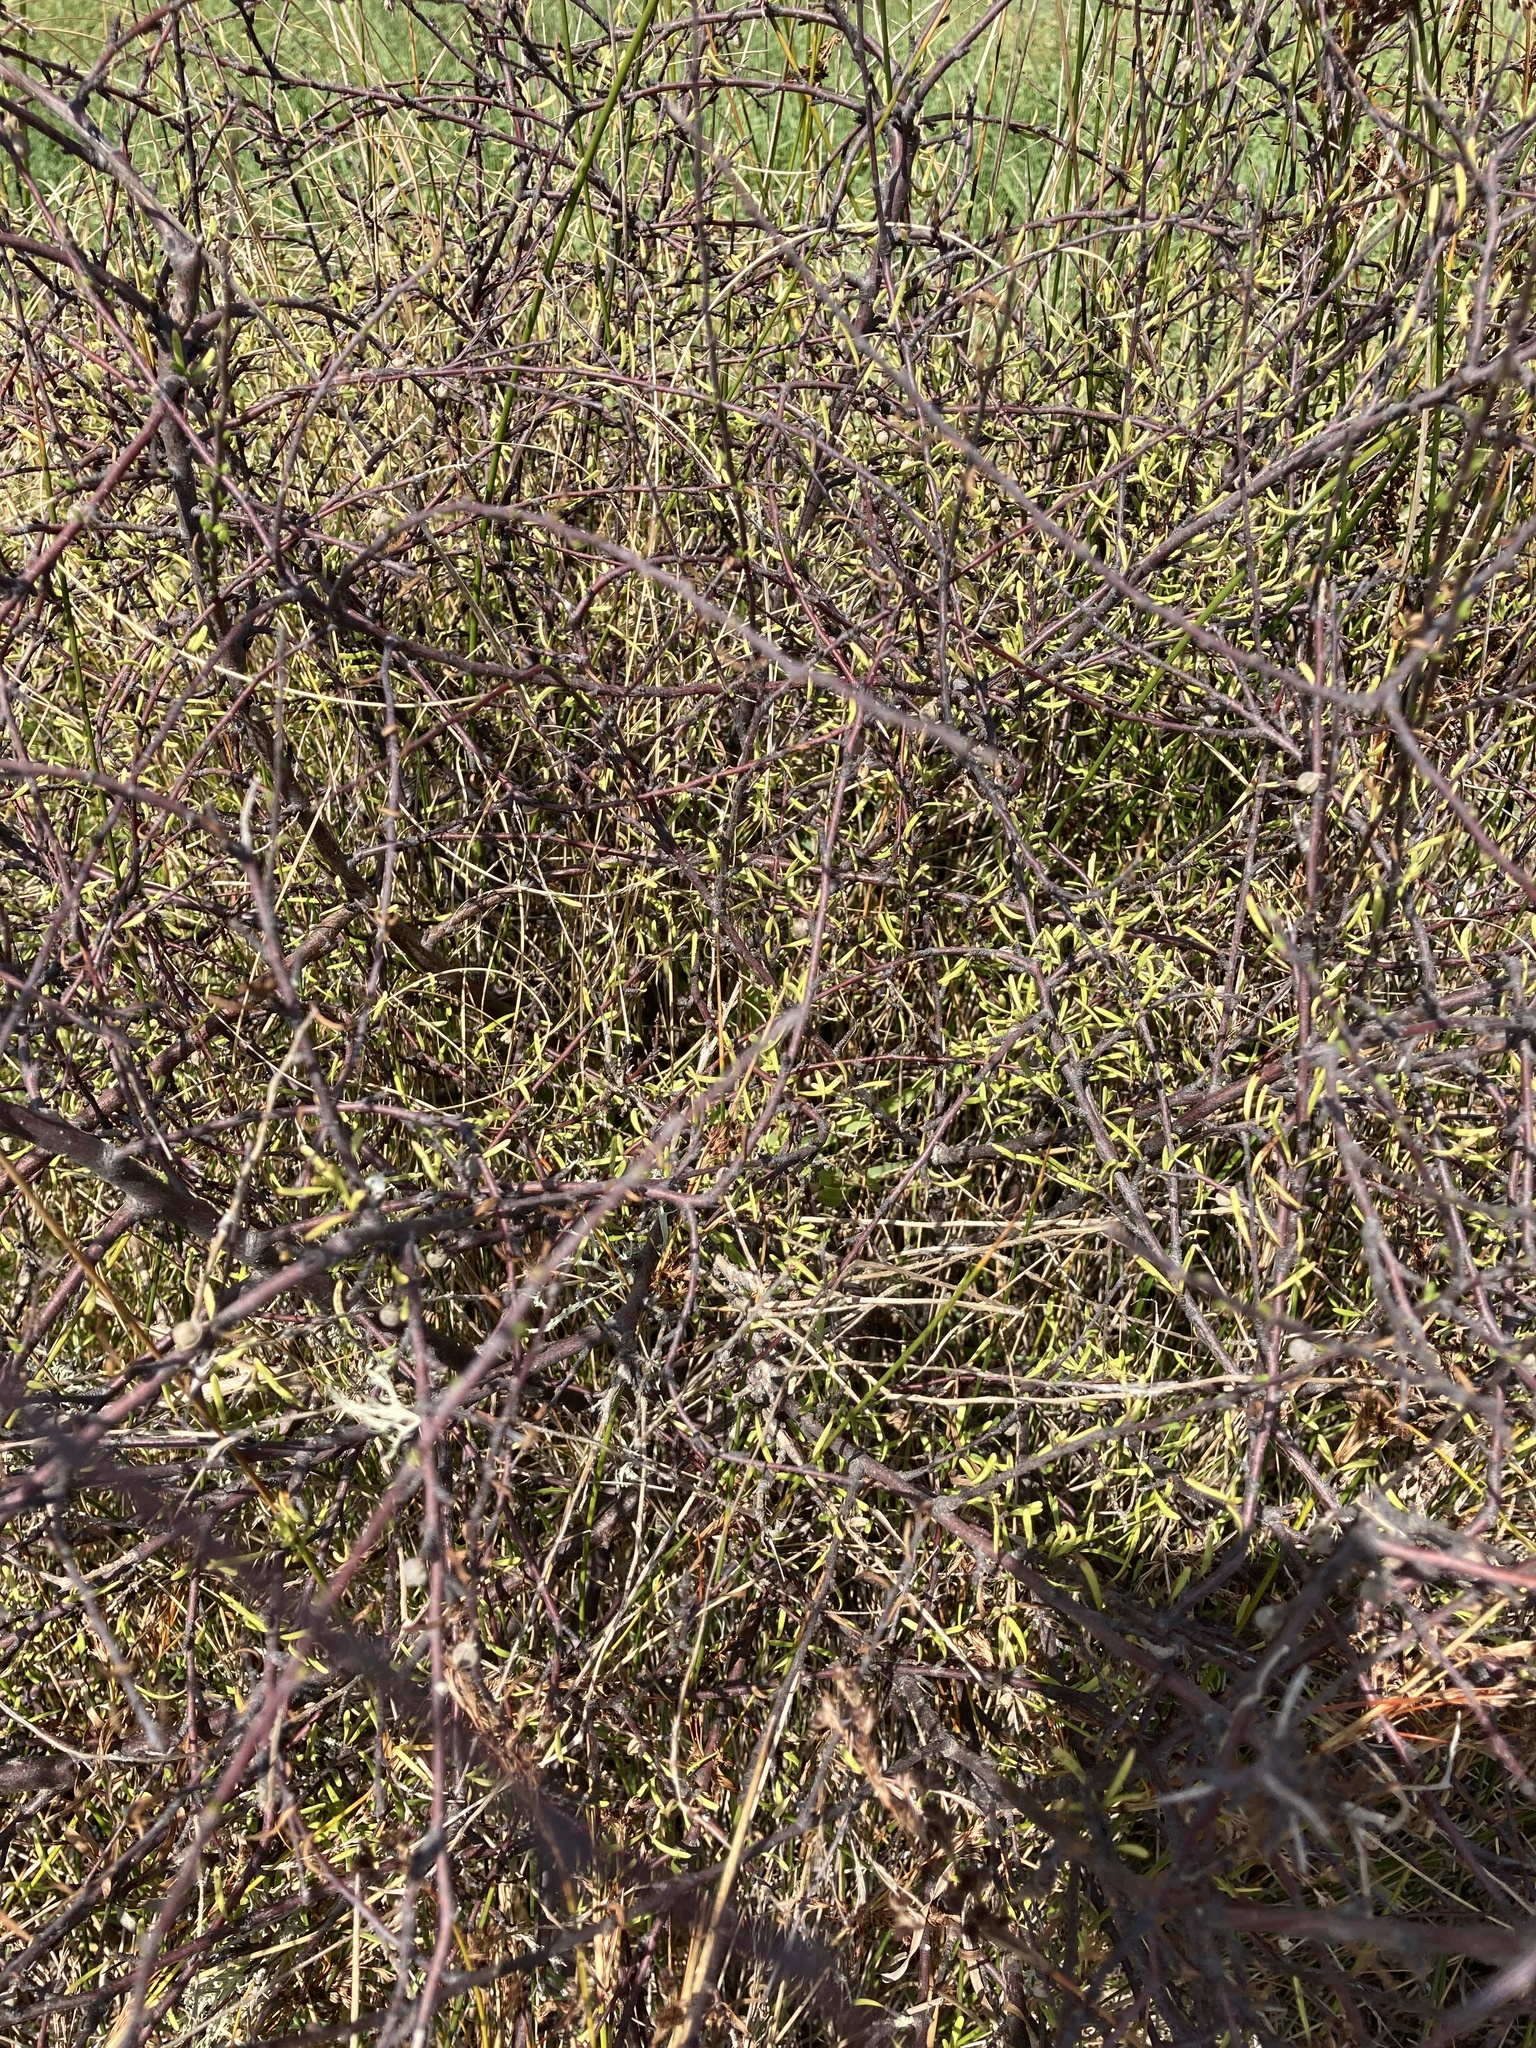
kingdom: Plantae
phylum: Tracheophyta
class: Magnoliopsida
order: Malvales
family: Malvaceae
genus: Plagianthus
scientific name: Plagianthus divaricatus
